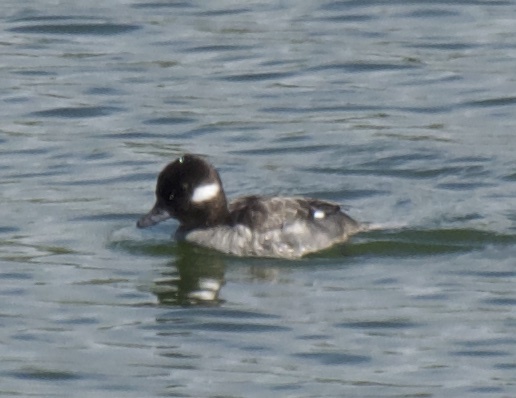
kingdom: Animalia
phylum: Chordata
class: Aves
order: Anseriformes
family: Anatidae
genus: Bucephala
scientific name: Bucephala albeola
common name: Bufflehead
